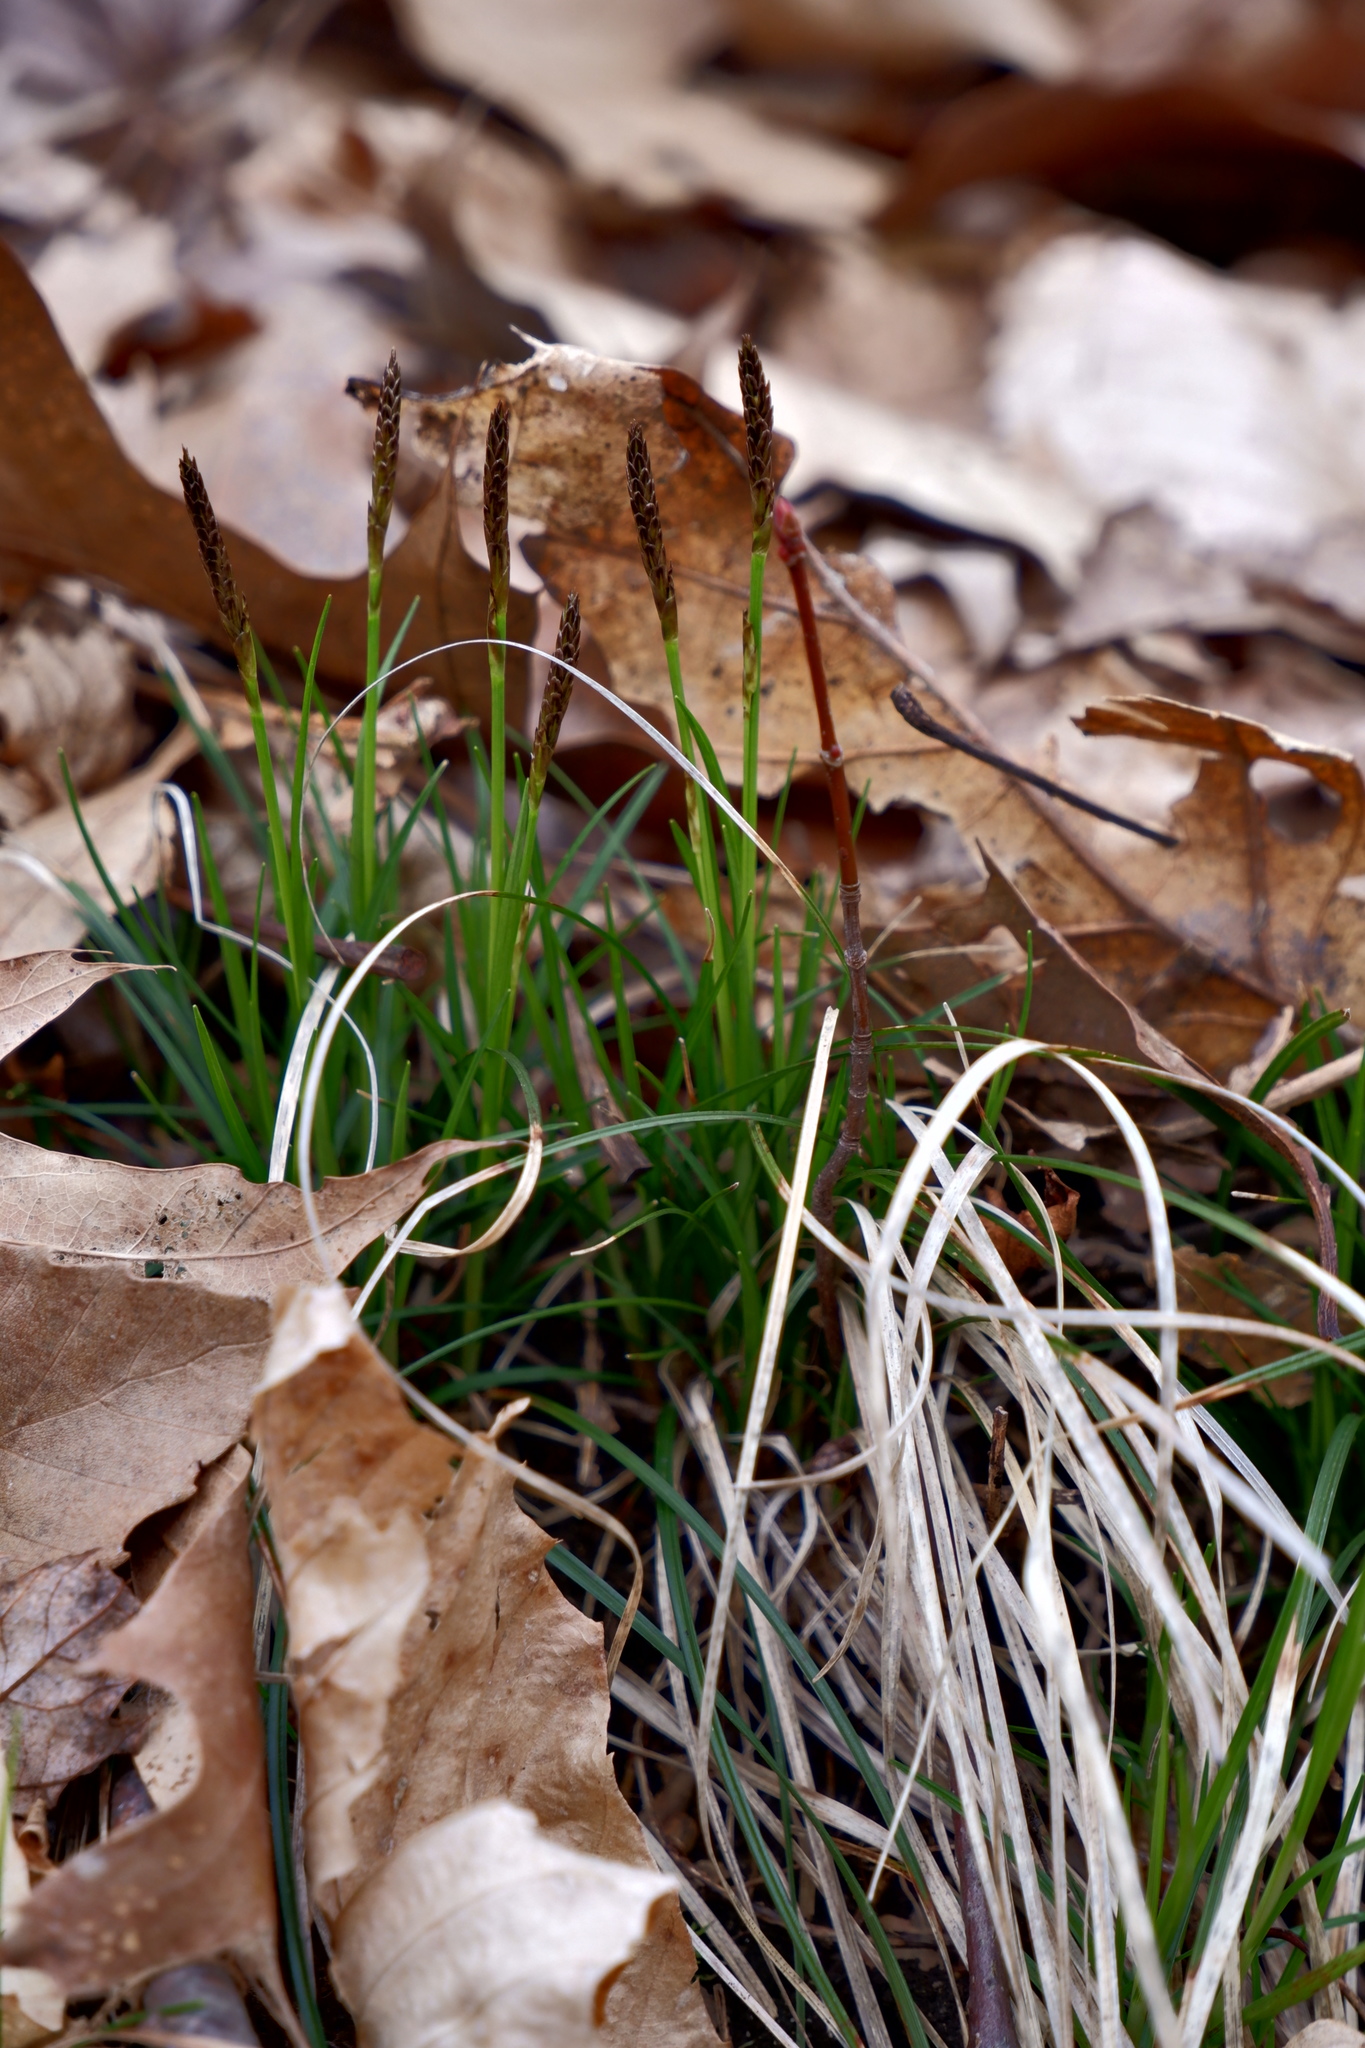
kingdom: Plantae
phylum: Tracheophyta
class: Liliopsida
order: Poales
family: Cyperaceae
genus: Carex
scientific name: Carex pensylvanica
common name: Common oak sedge
